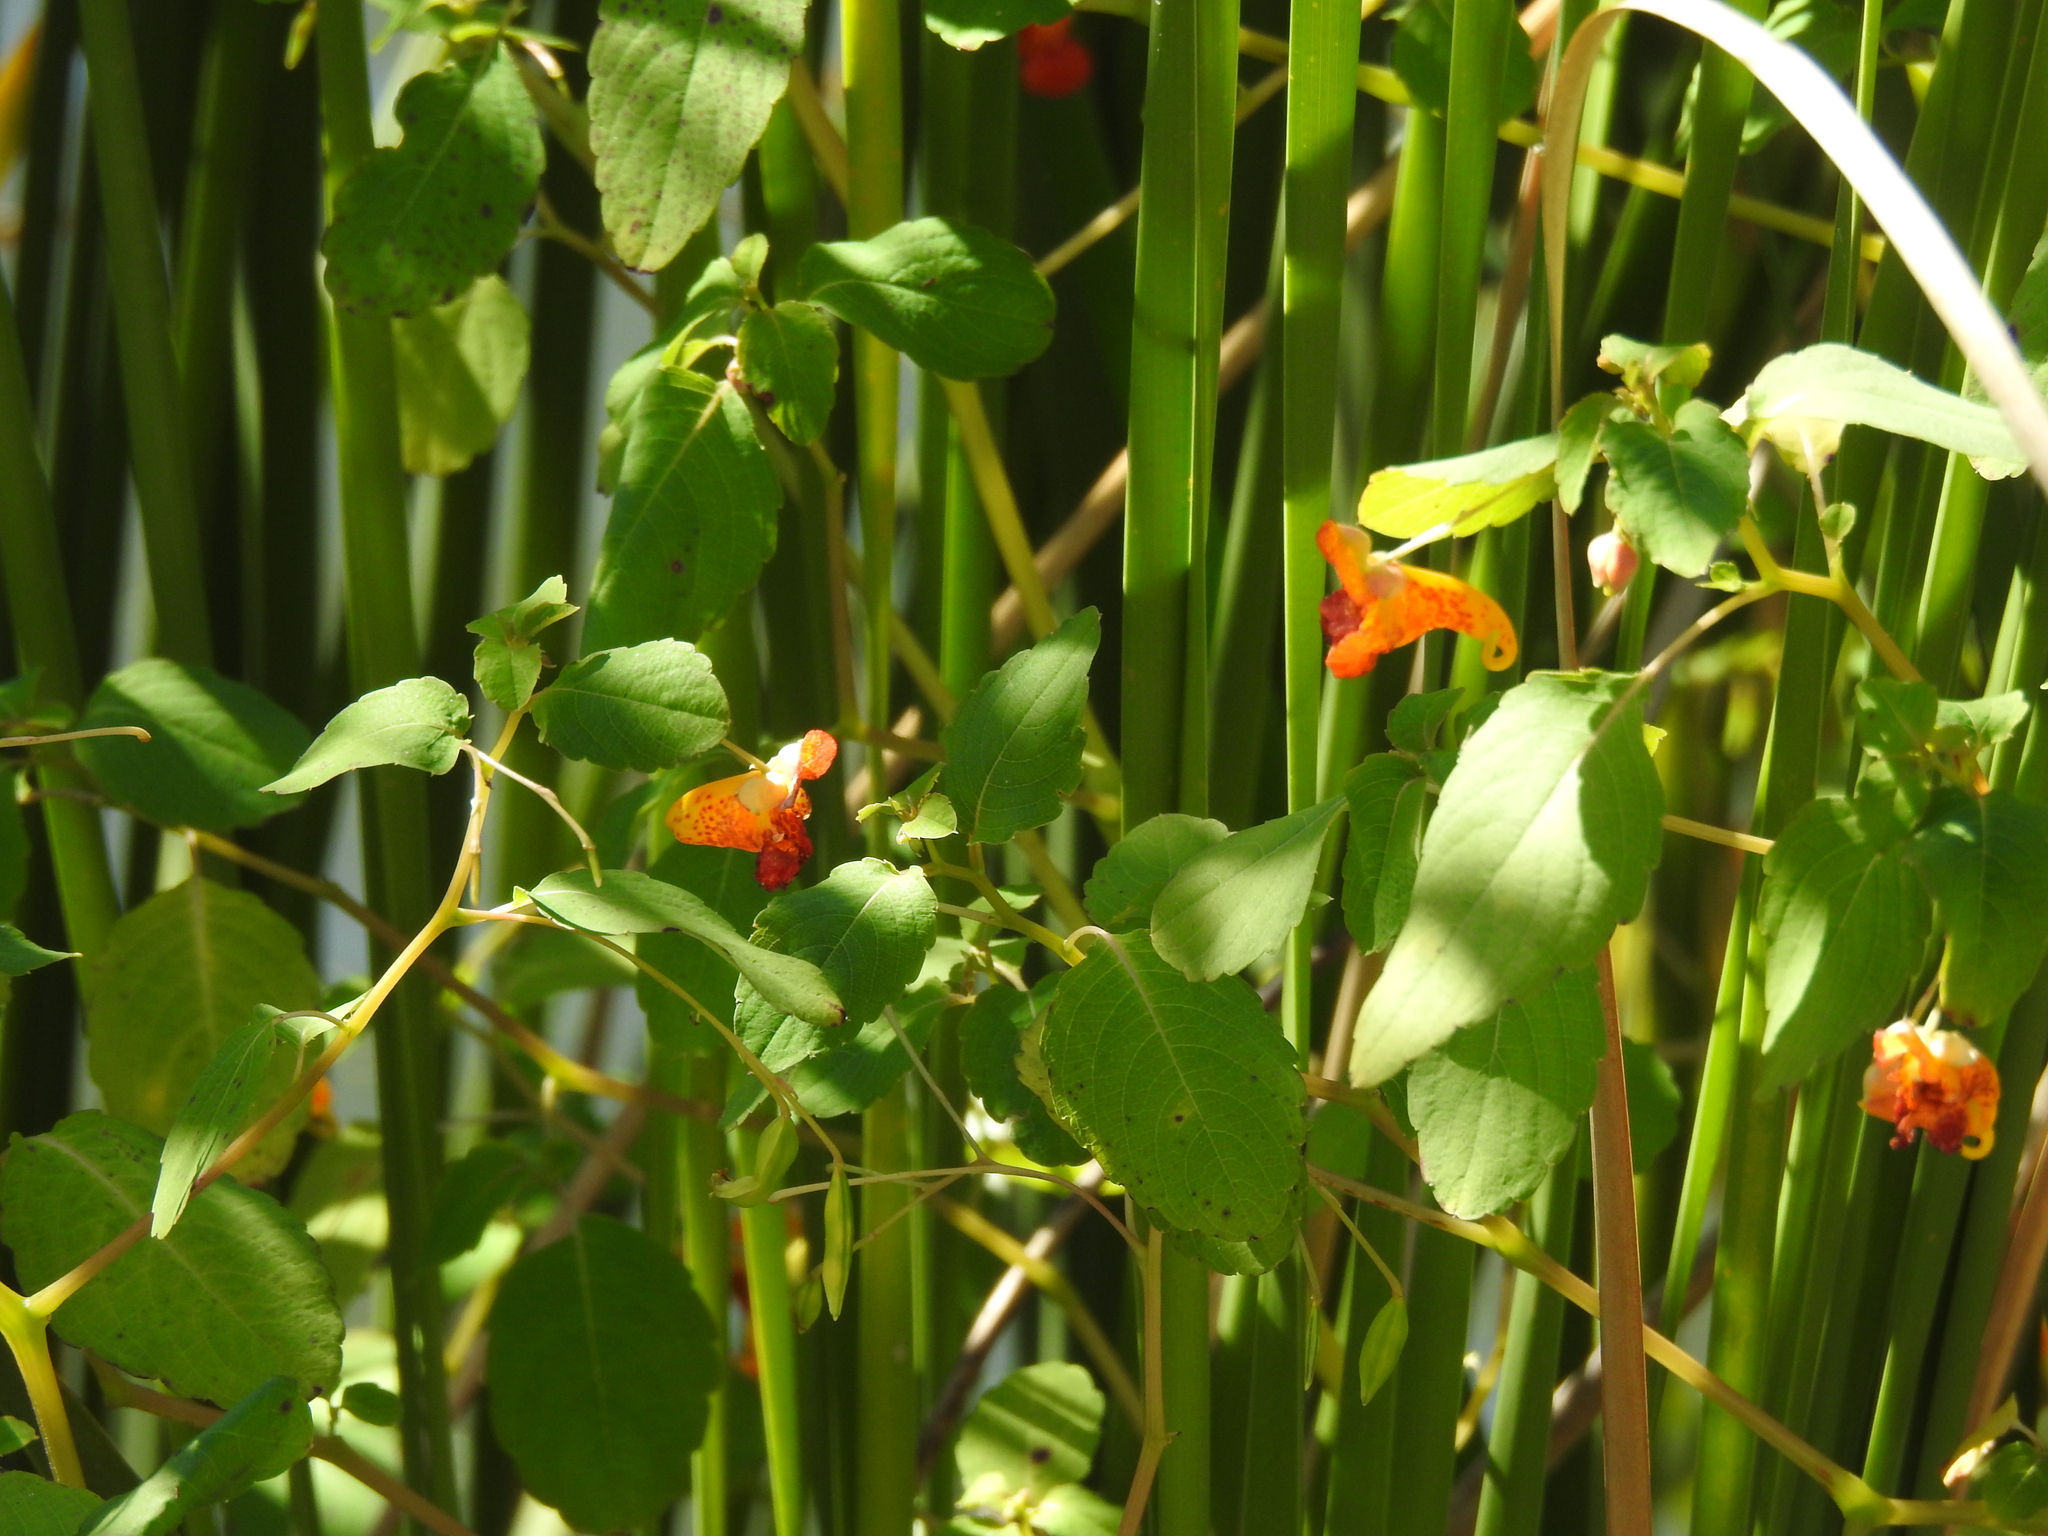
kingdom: Plantae
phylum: Tracheophyta
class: Magnoliopsida
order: Ericales
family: Balsaminaceae
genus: Impatiens
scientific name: Impatiens capensis
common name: Orange balsam
